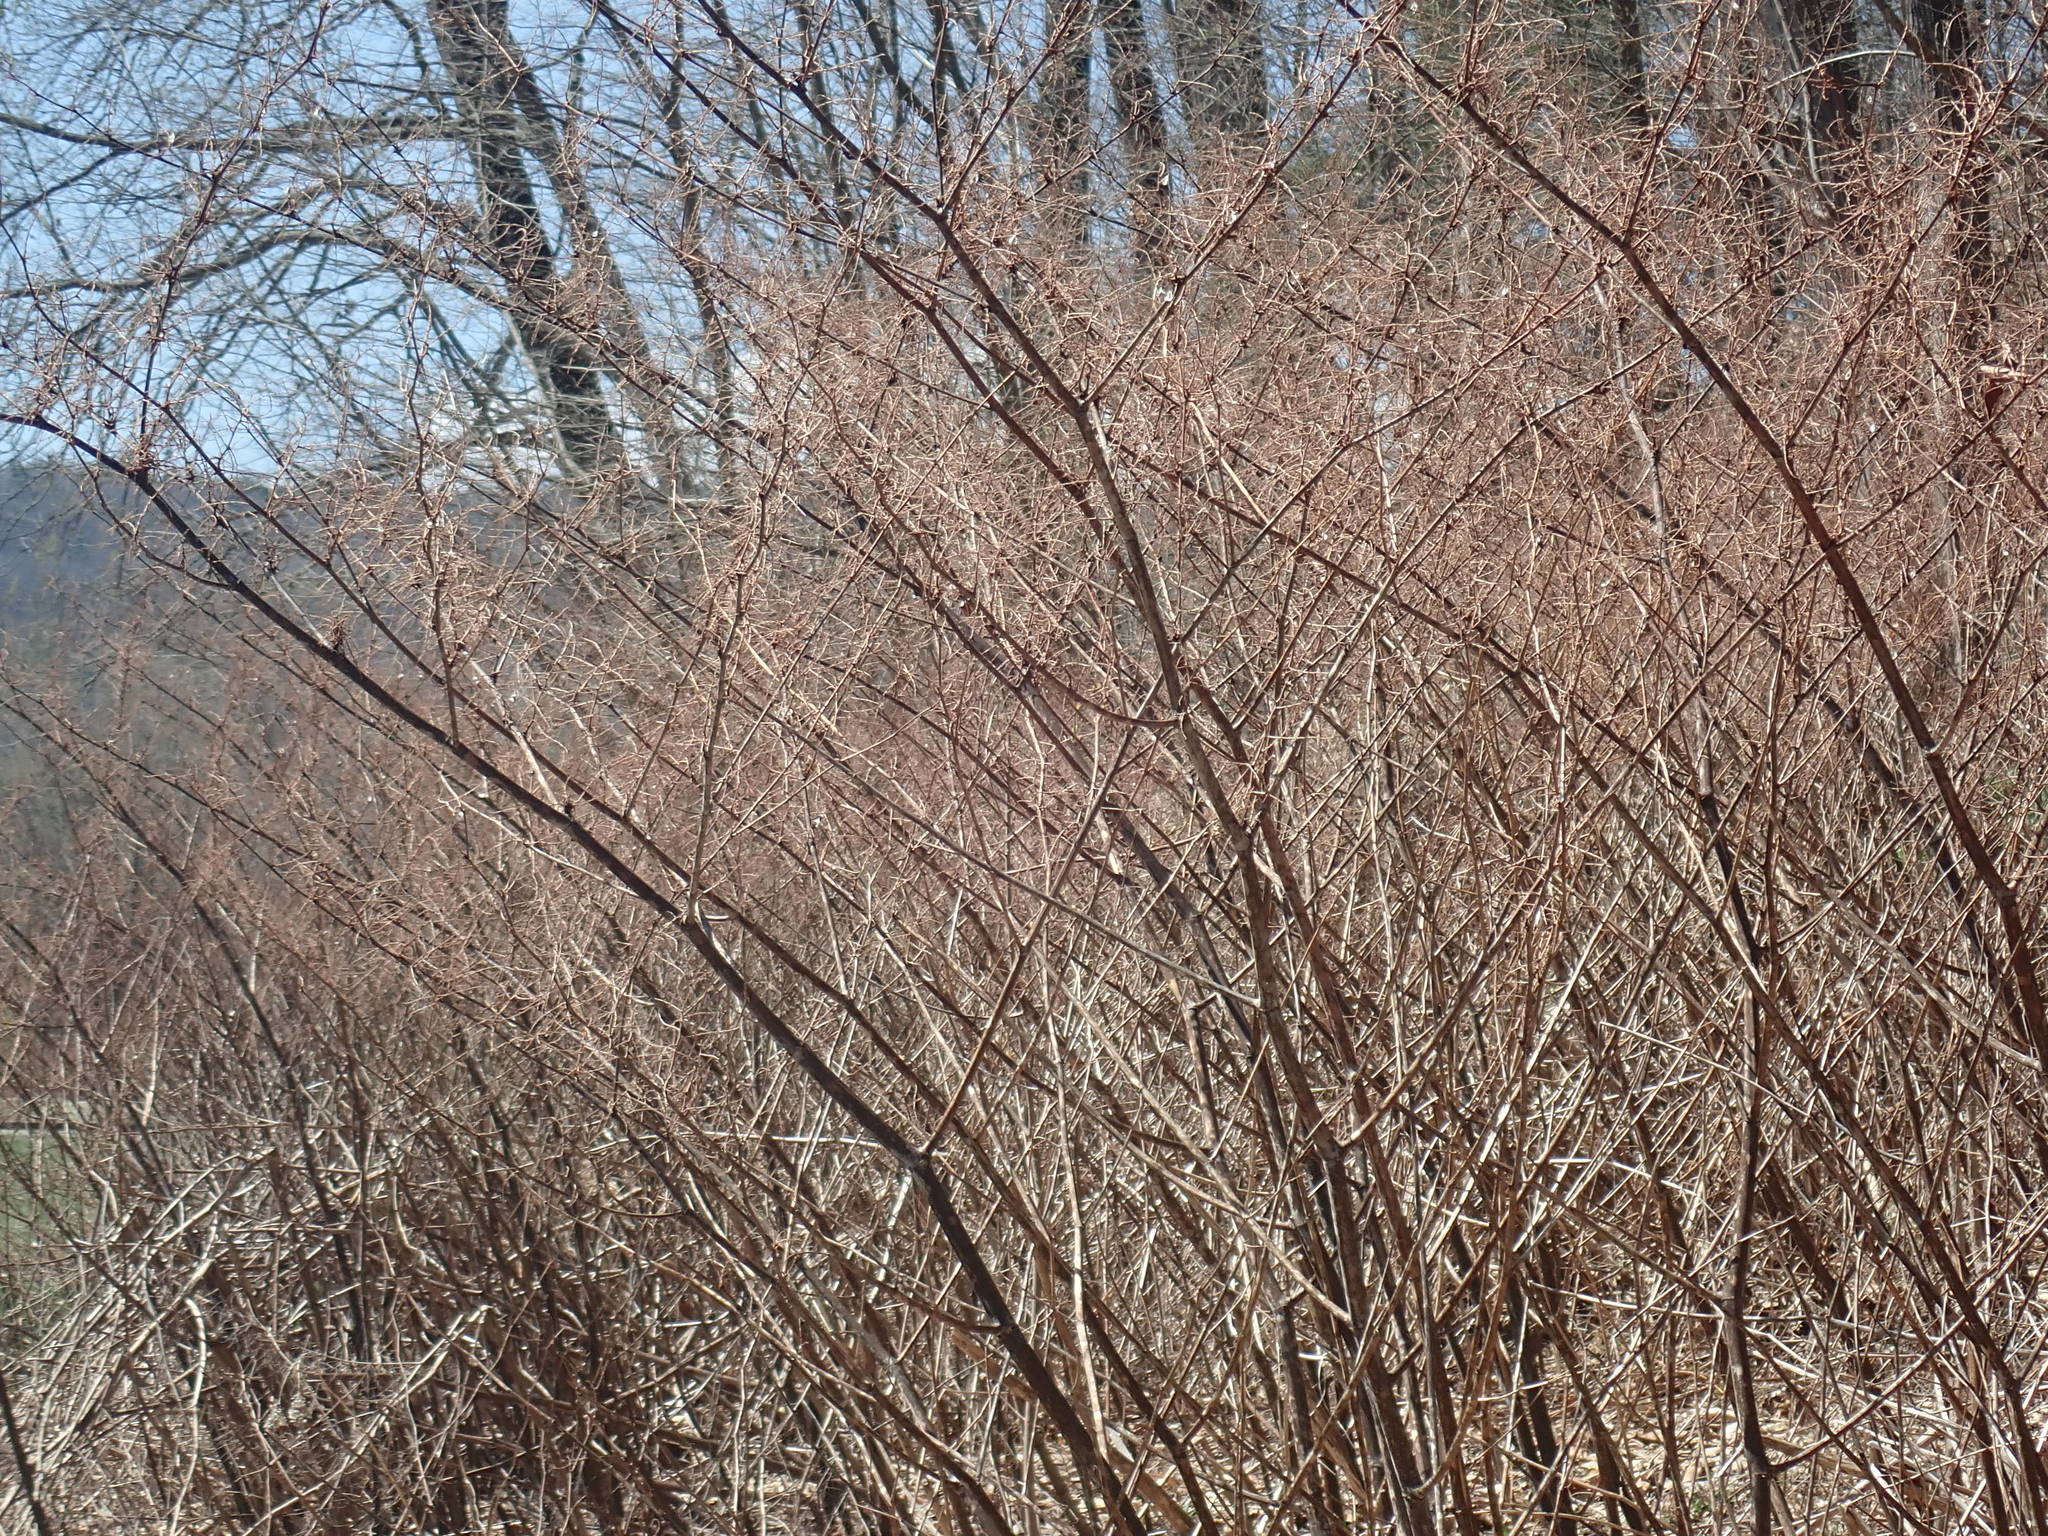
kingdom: Plantae
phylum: Tracheophyta
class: Magnoliopsida
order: Caryophyllales
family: Polygonaceae
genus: Reynoutria
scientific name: Reynoutria
